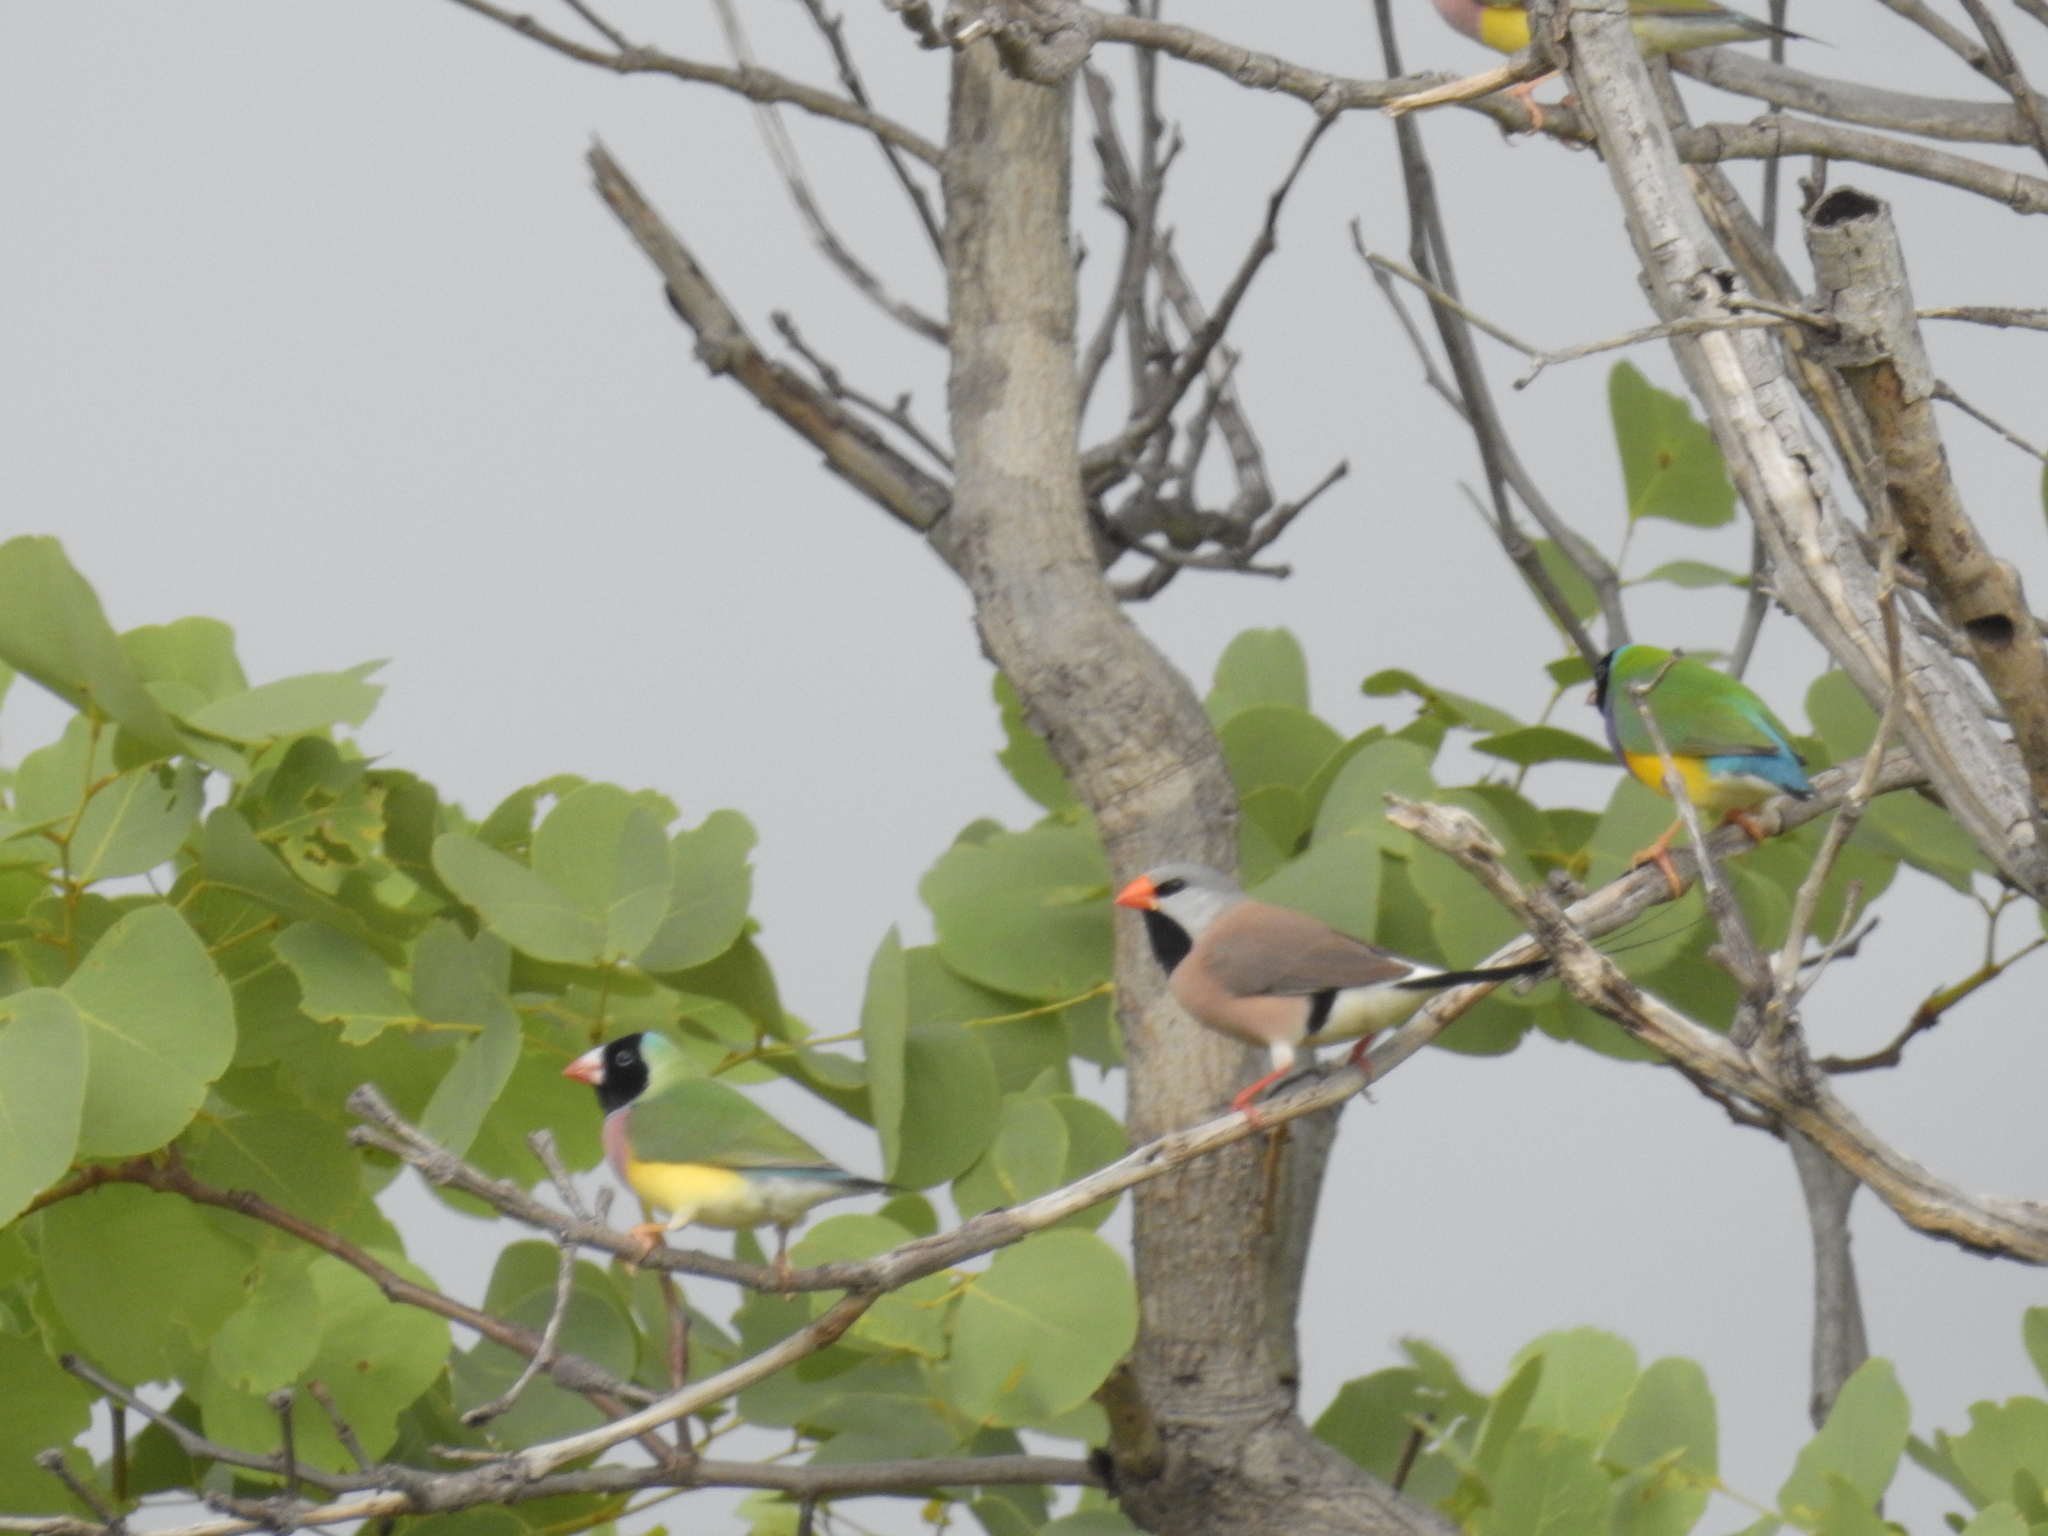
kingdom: Animalia
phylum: Chordata
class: Aves
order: Passeriformes
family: Estrildidae
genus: Poephila
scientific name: Poephila acuticauda
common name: Long-tailed finch
